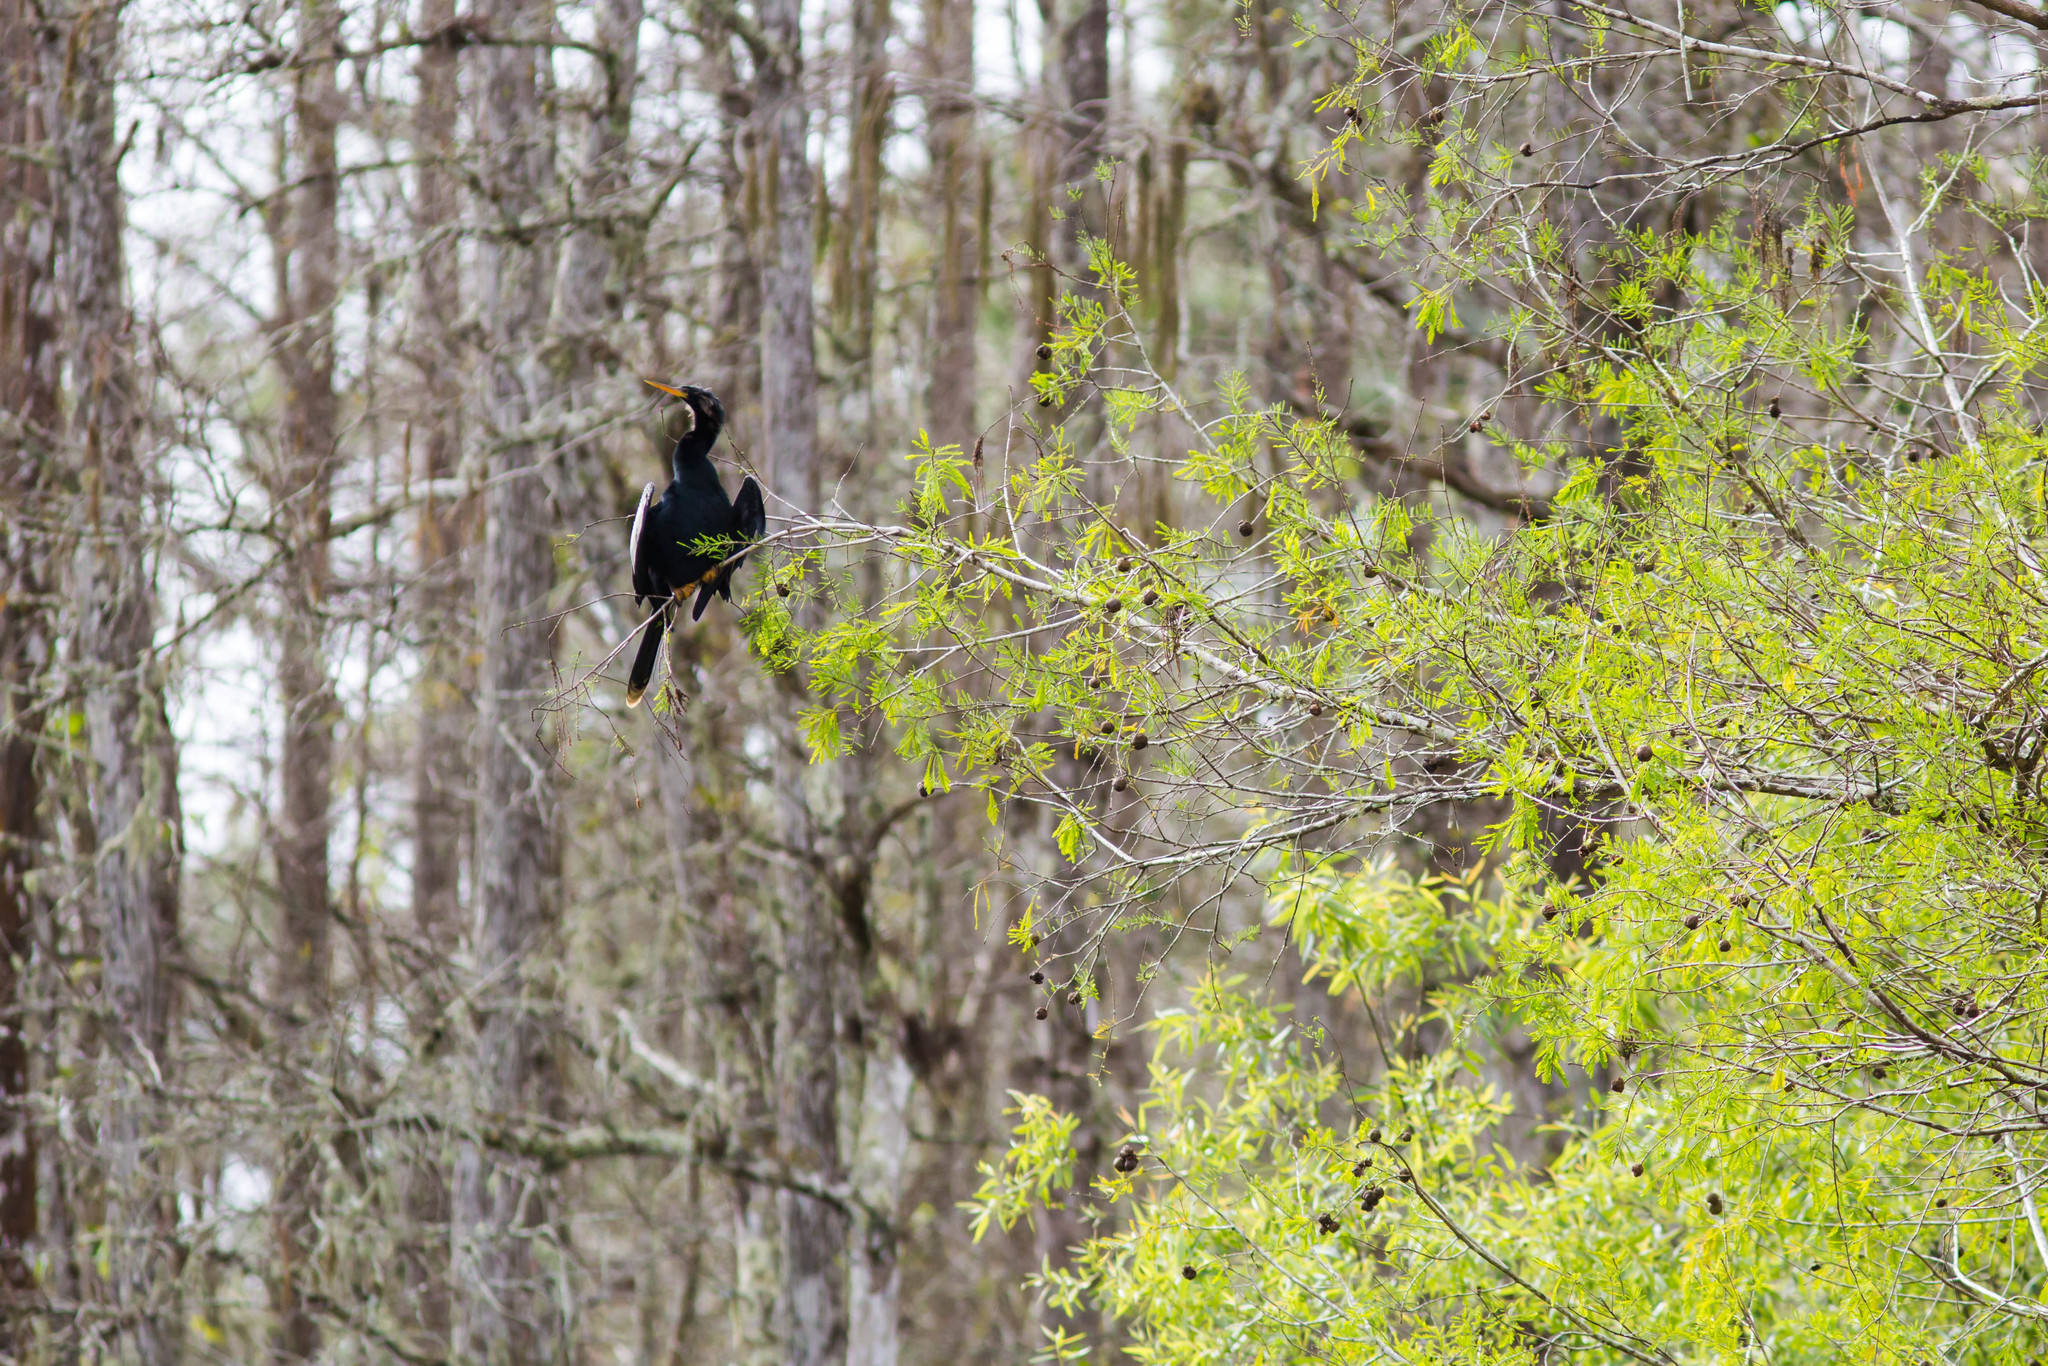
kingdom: Animalia
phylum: Chordata
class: Aves
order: Suliformes
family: Anhingidae
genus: Anhinga
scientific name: Anhinga anhinga
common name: Anhinga
